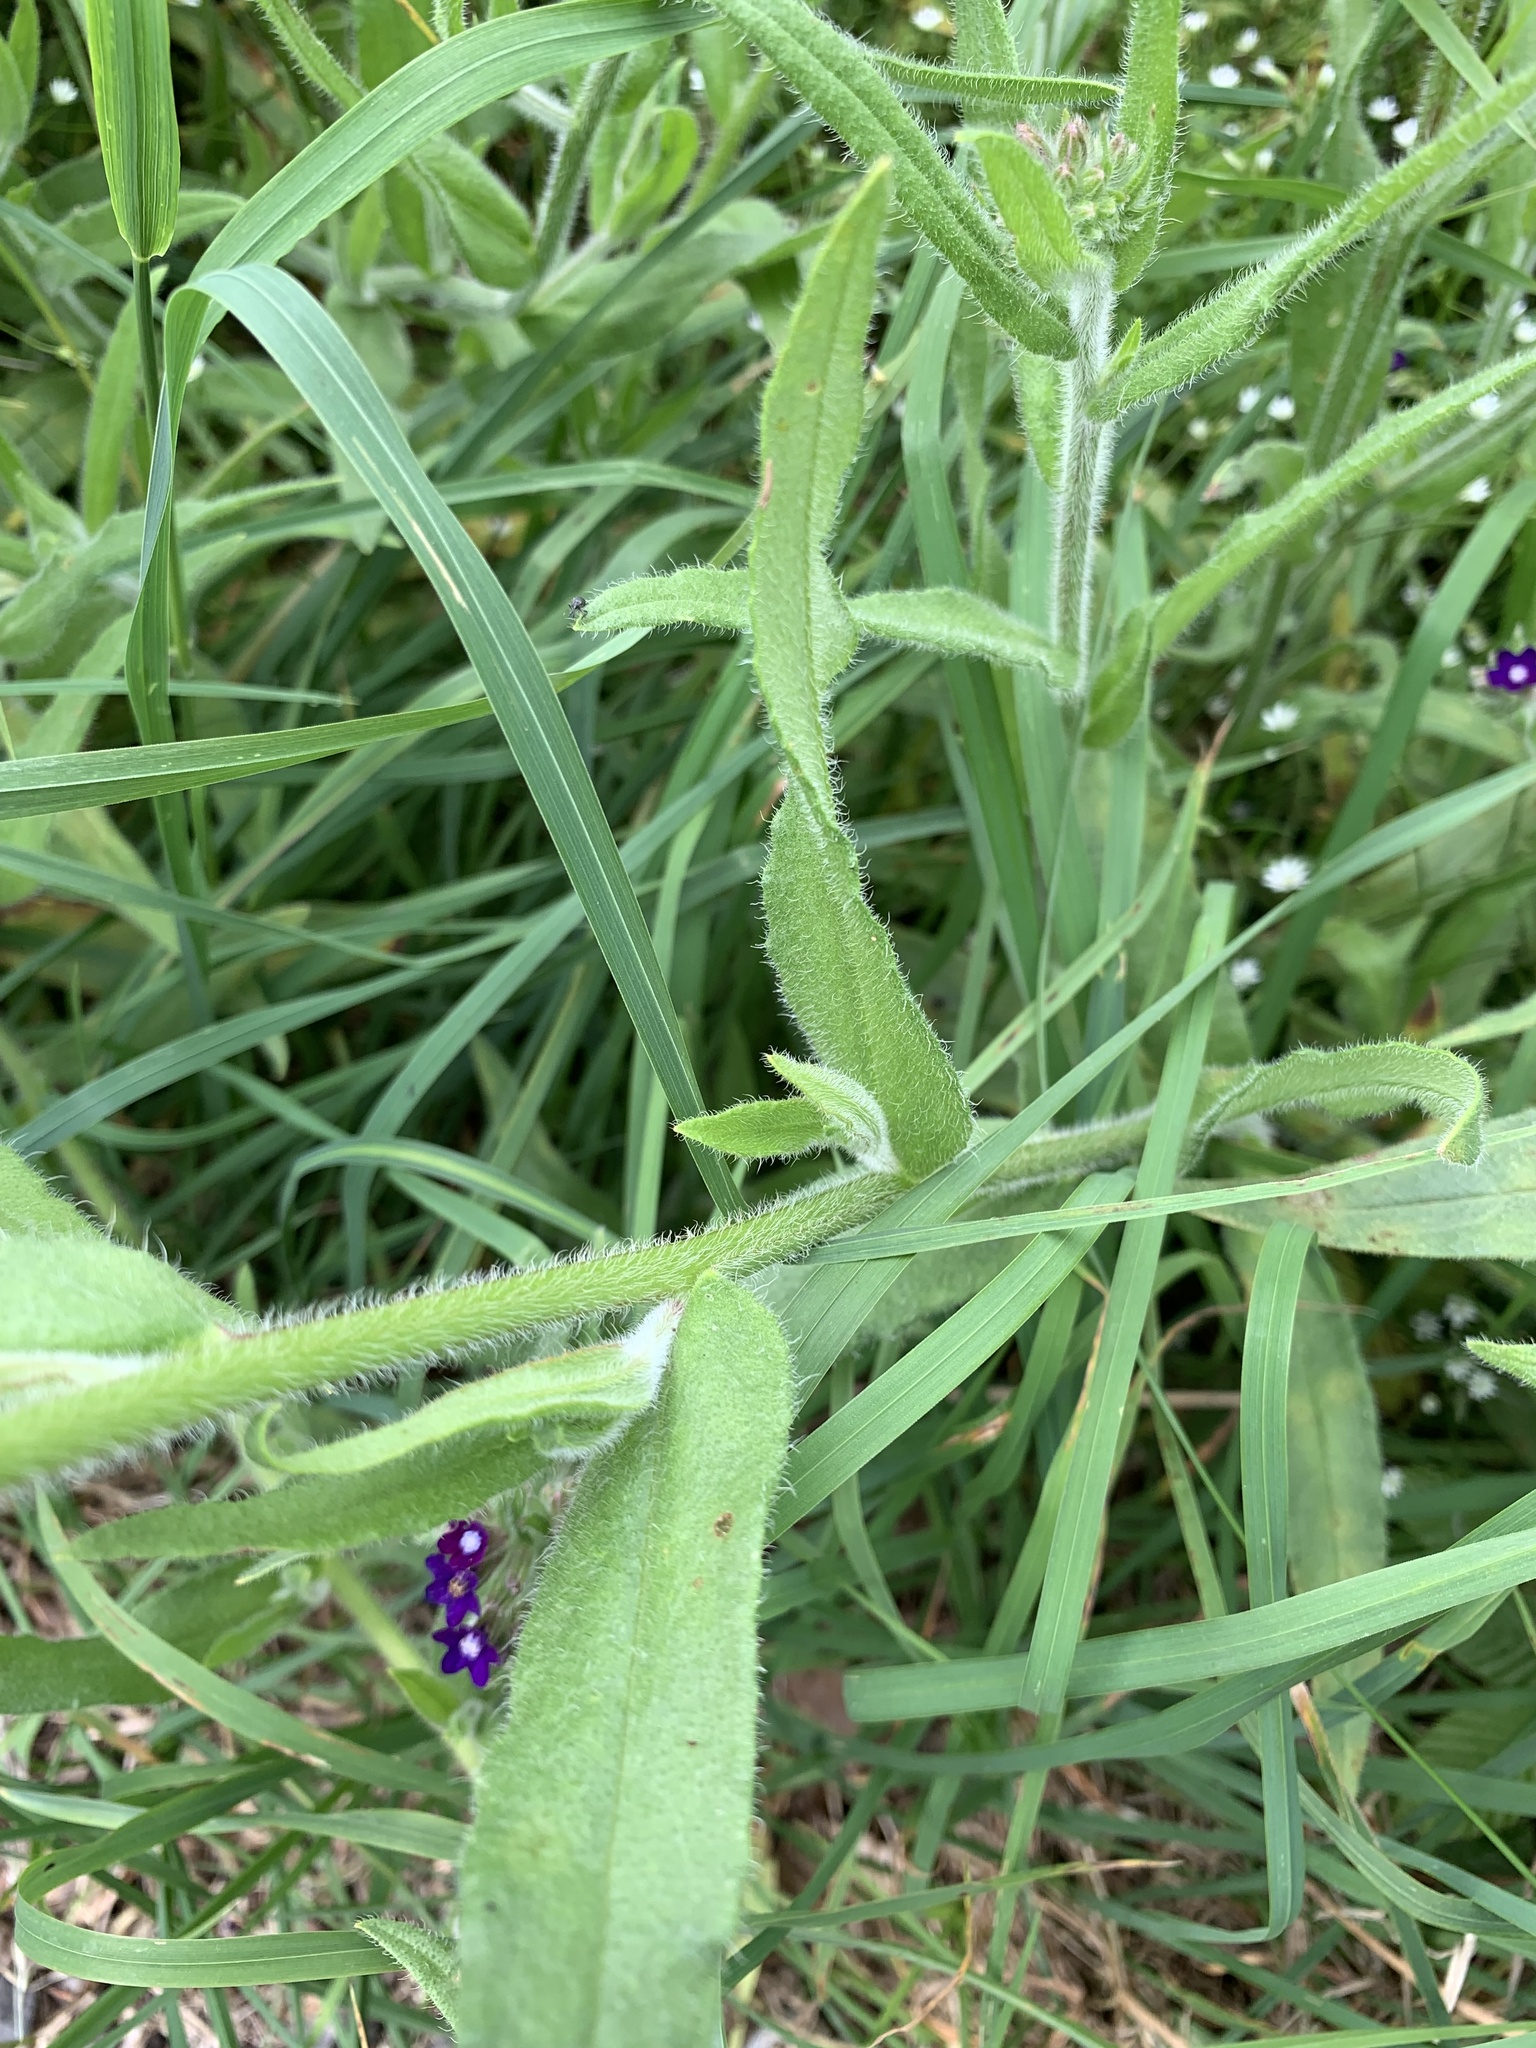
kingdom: Plantae
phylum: Tracheophyta
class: Magnoliopsida
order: Boraginales
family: Boraginaceae
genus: Anchusa
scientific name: Anchusa officinalis
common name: Alkanet
